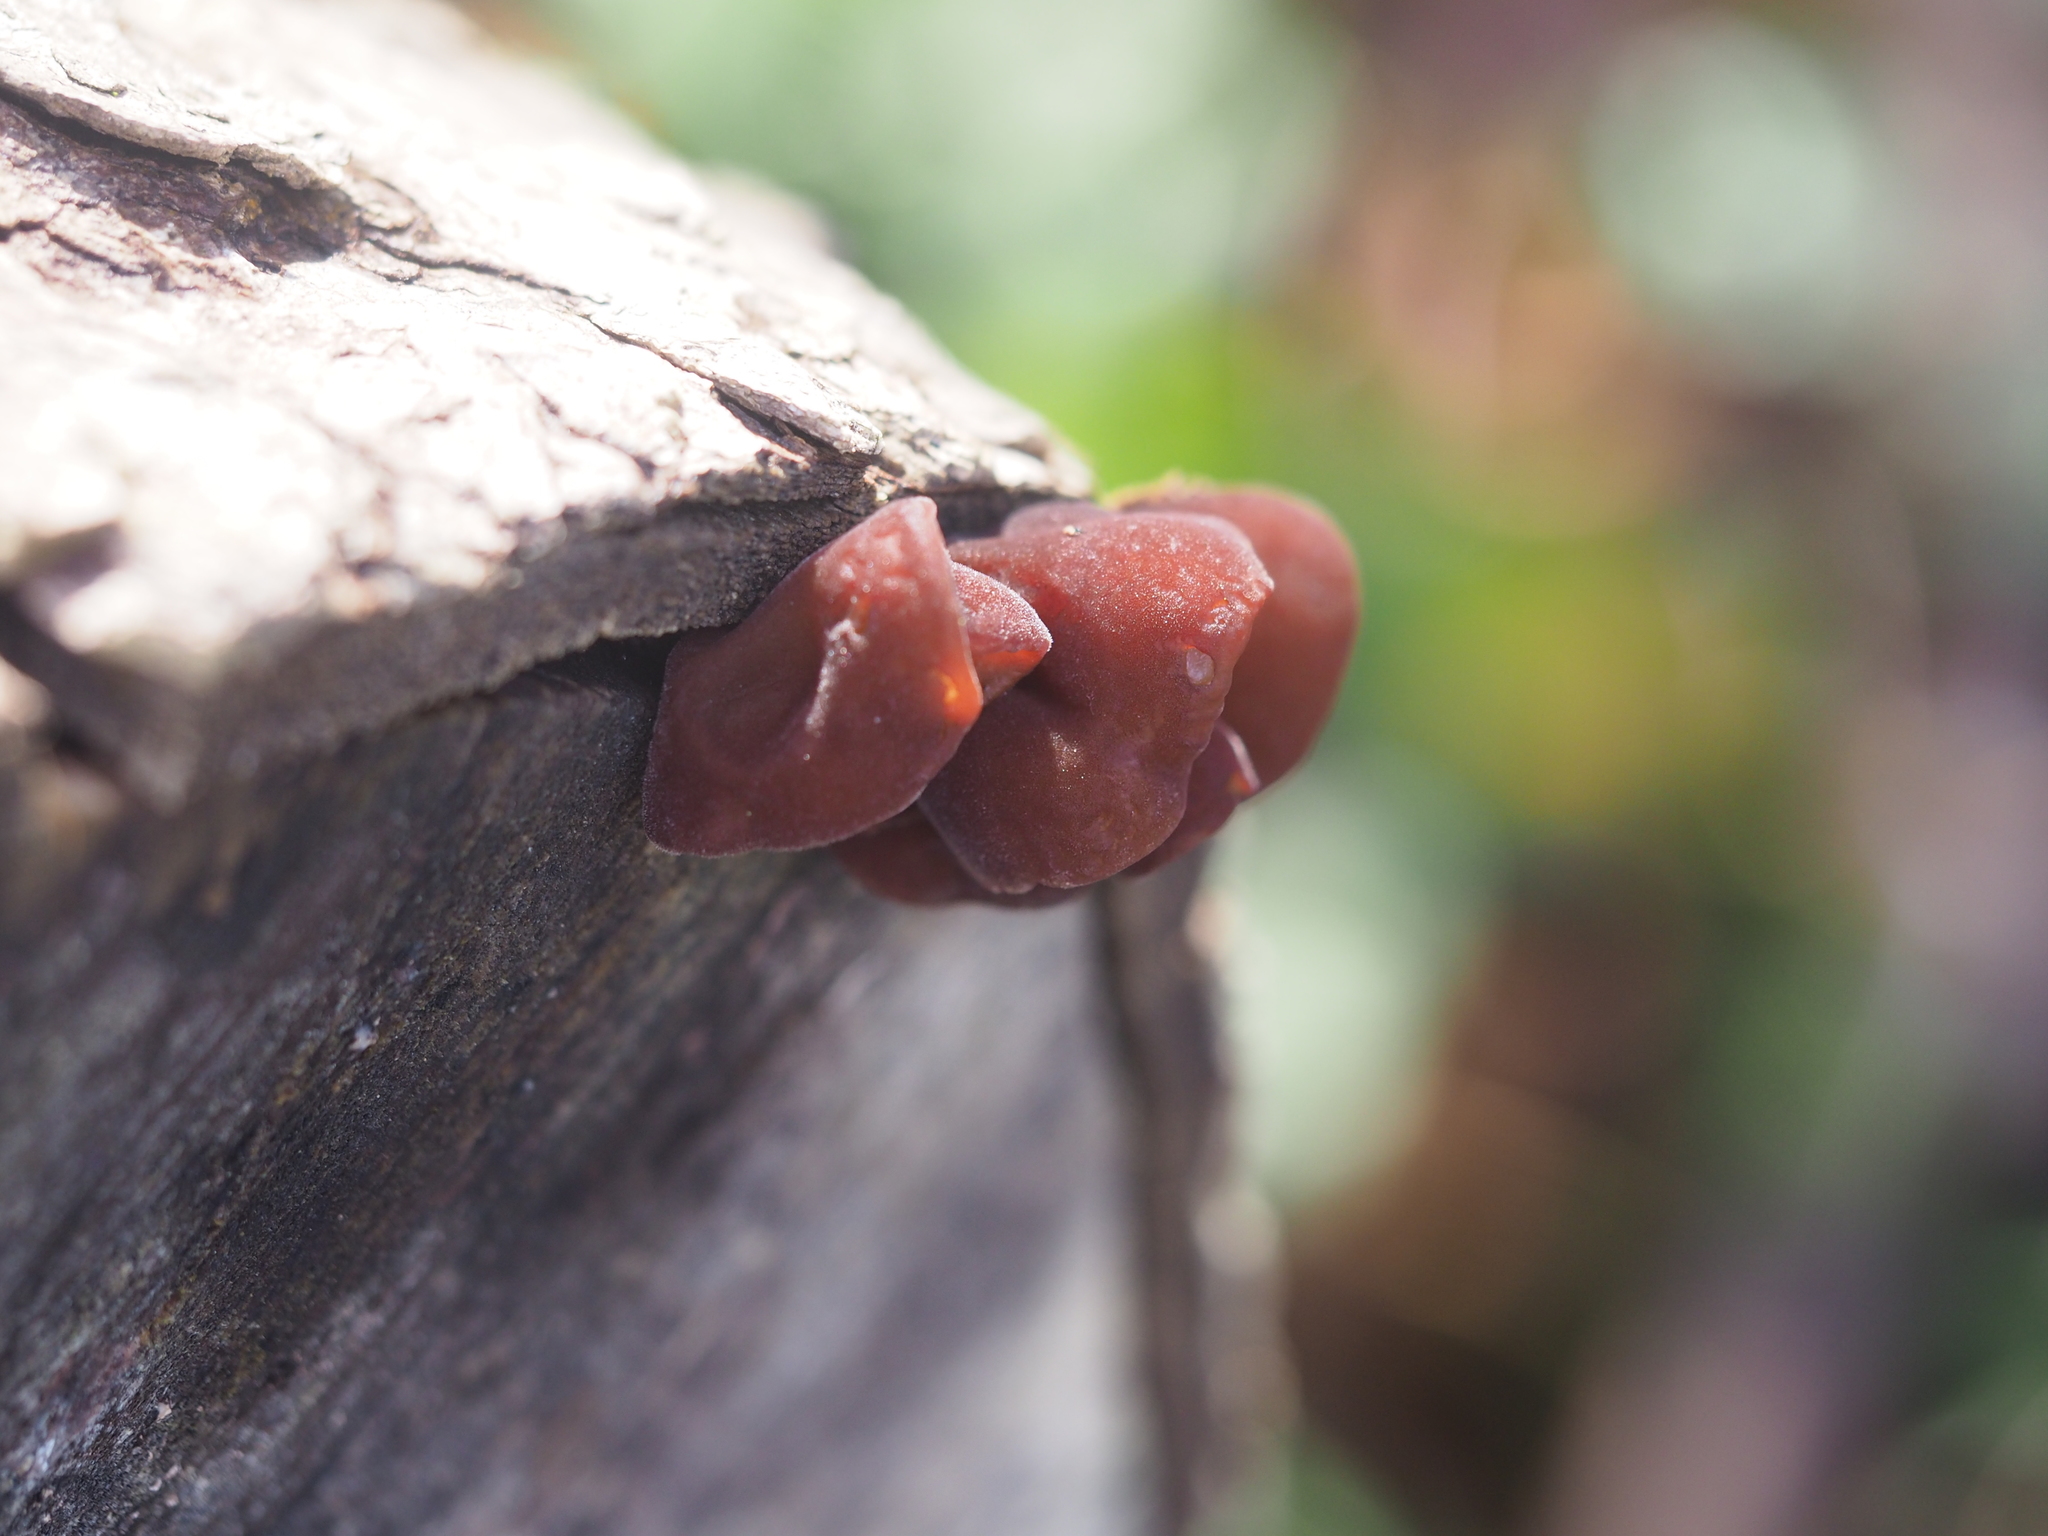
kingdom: Fungi
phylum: Basidiomycota
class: Agaricomycetes
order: Auriculariales
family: Auriculariaceae
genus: Auricularia
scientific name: Auricularia auricula-judae
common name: Jelly ear
